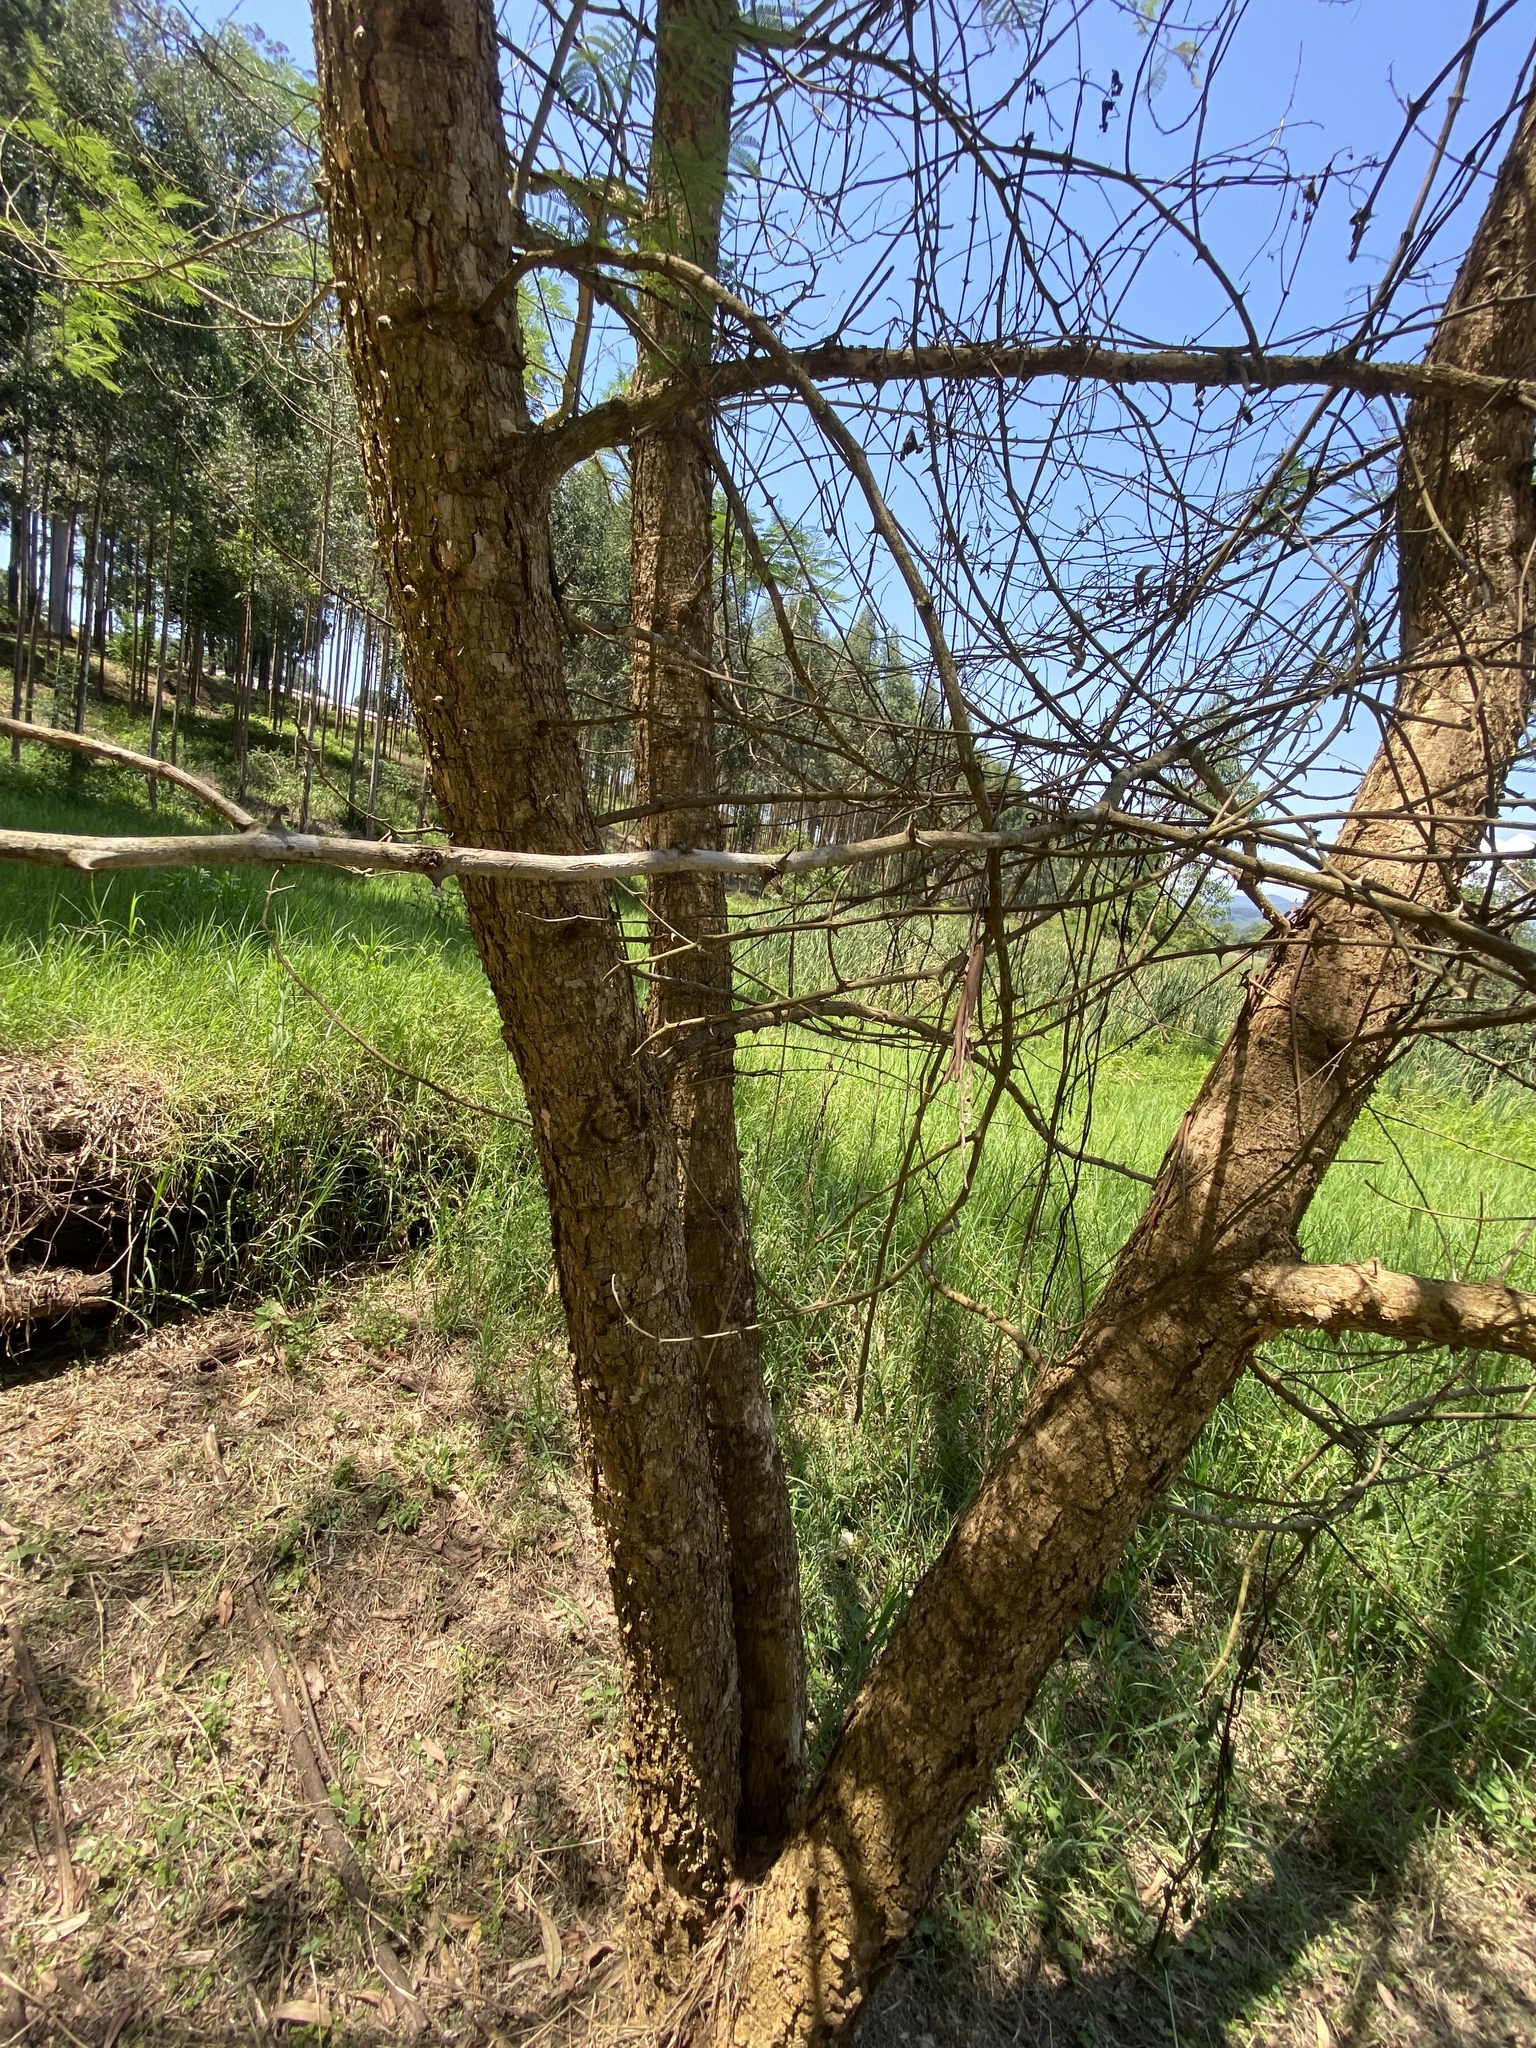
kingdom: Plantae
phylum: Tracheophyta
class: Magnoliopsida
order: Fabales
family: Fabaceae
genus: Senegalia
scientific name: Senegalia polyacantha
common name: Whitethorn
